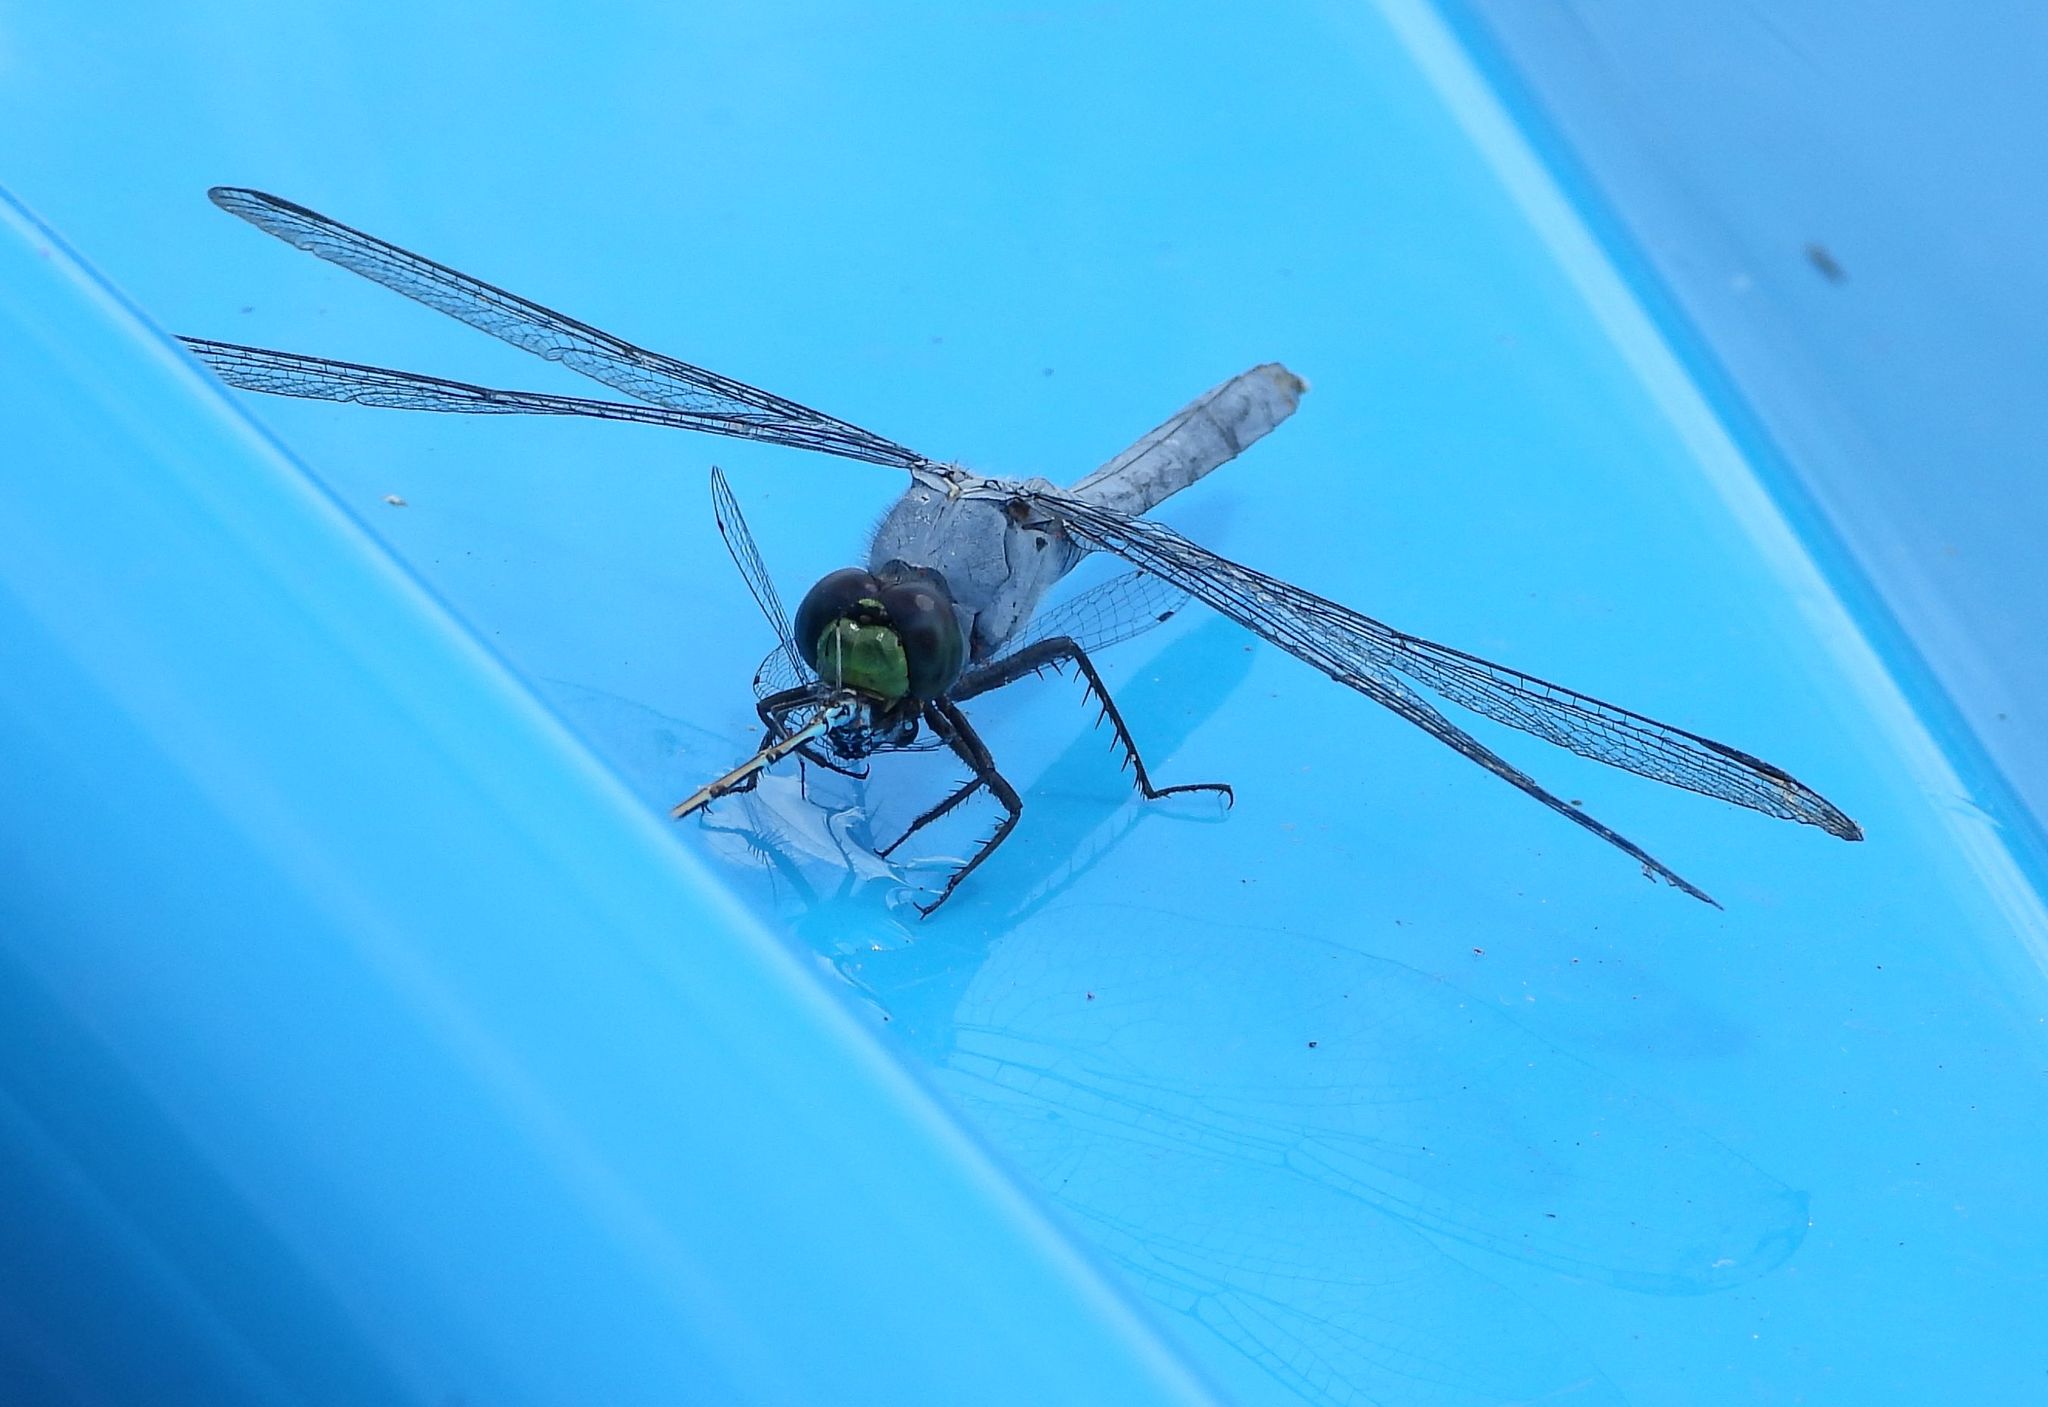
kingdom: Animalia
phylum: Arthropoda
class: Insecta
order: Odonata
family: Libellulidae
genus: Erythemis
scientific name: Erythemis simplicicollis
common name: Eastern pondhawk
